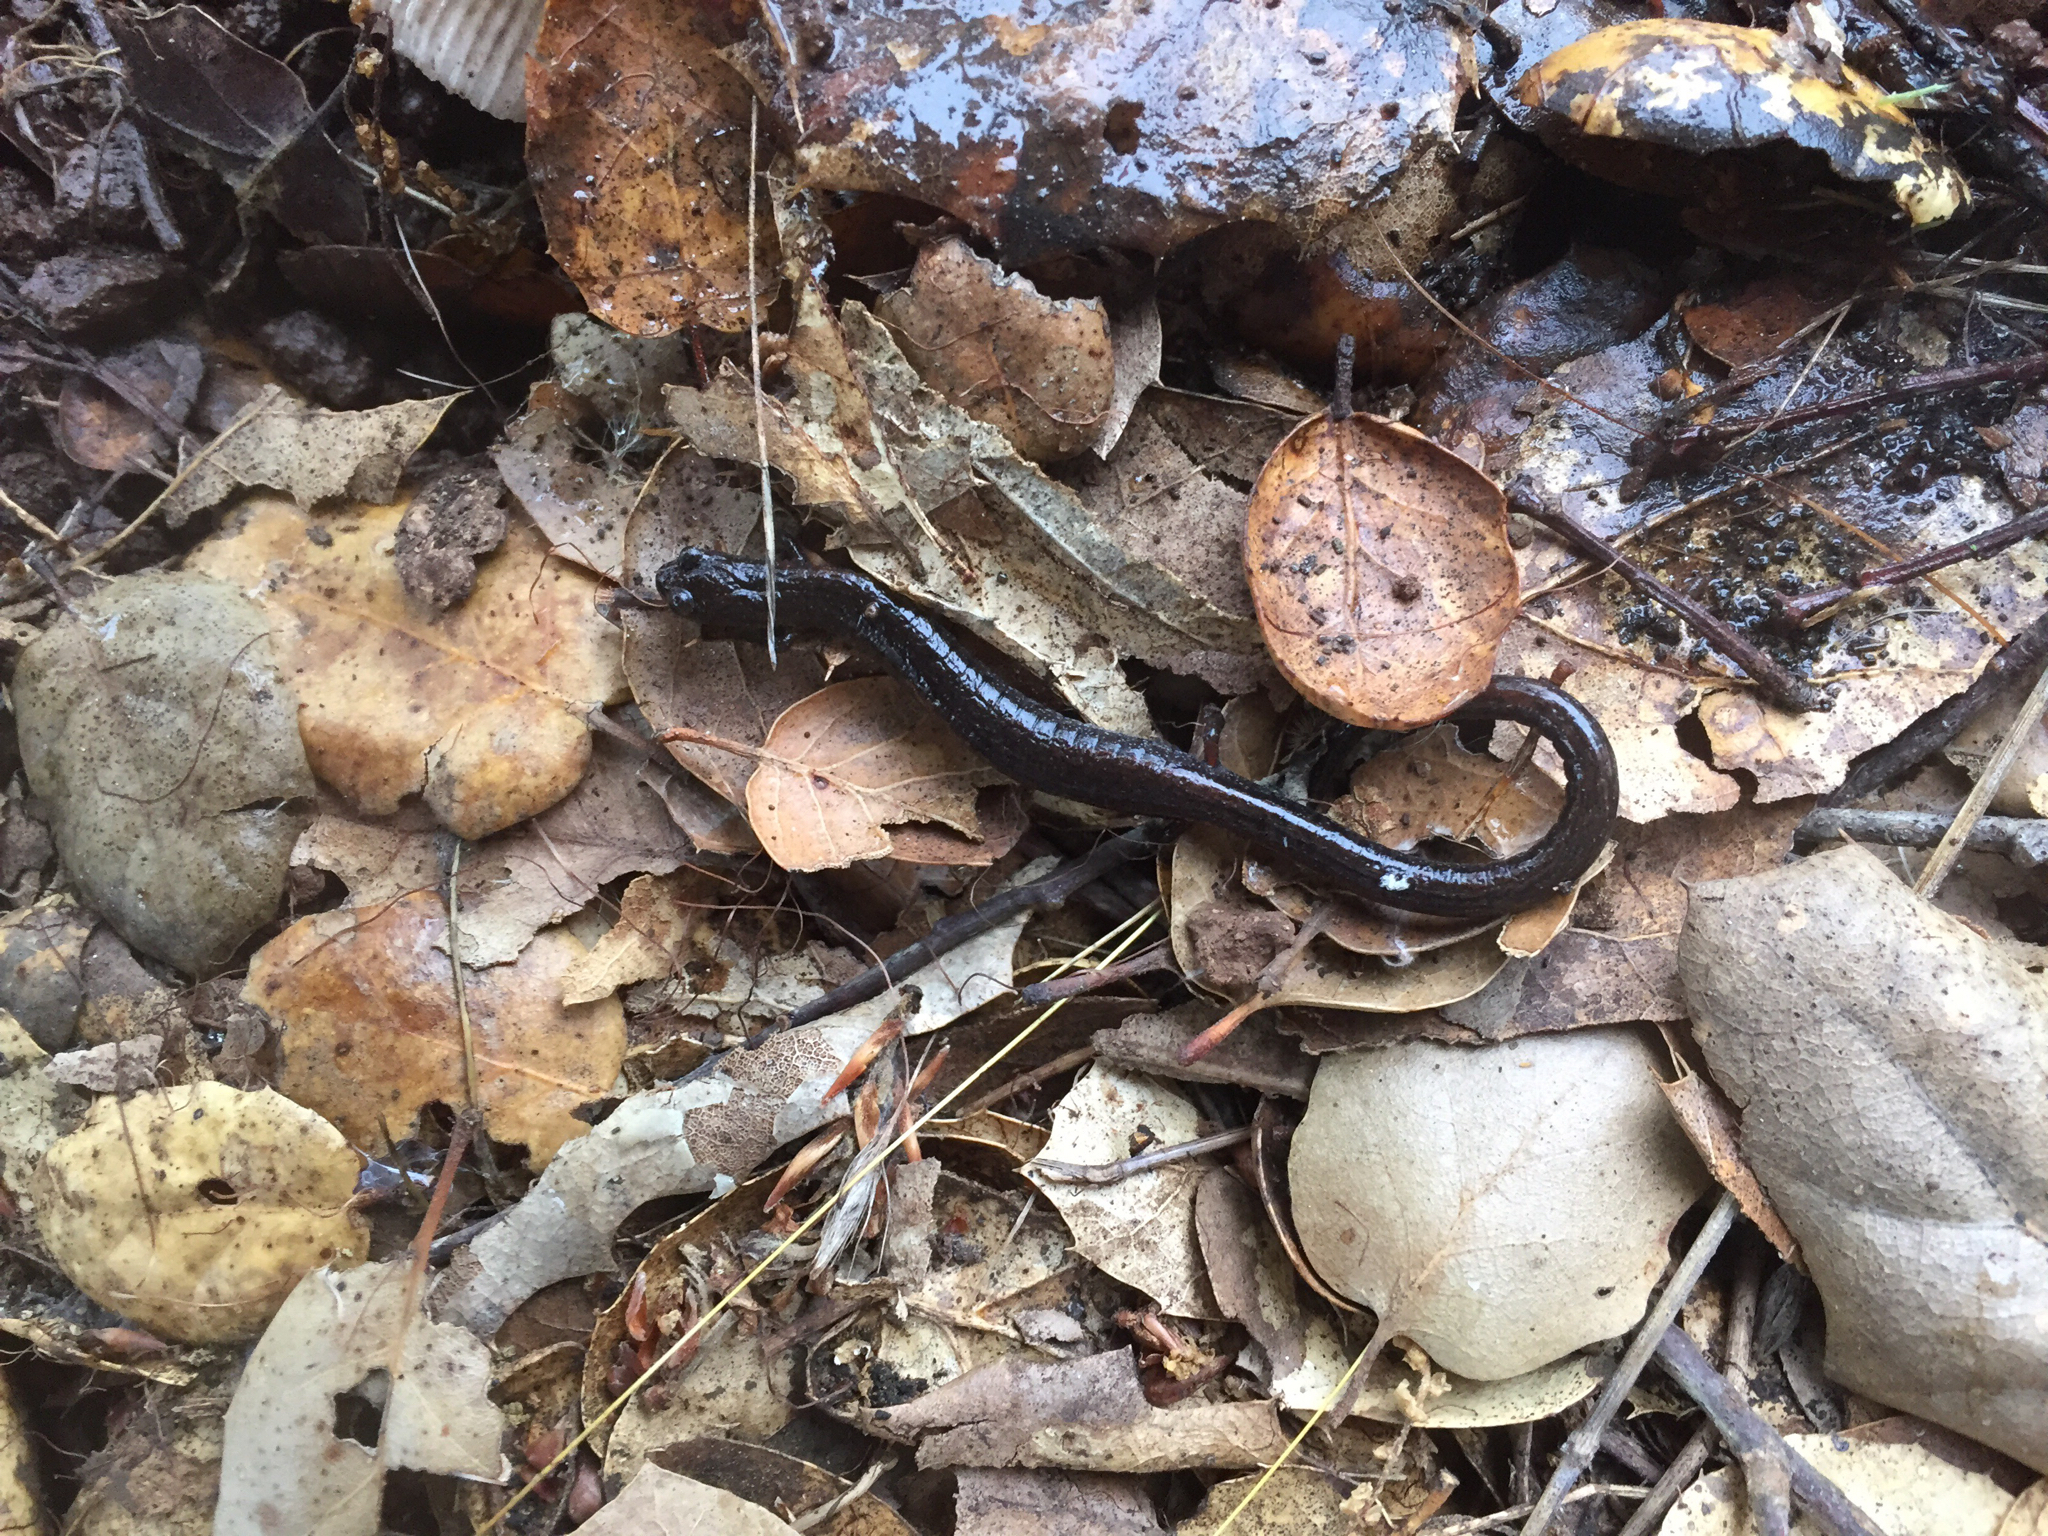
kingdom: Animalia
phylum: Chordata
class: Amphibia
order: Caudata
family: Plethodontidae
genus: Batrachoseps
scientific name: Batrachoseps attenuatus
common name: California slender salamander
